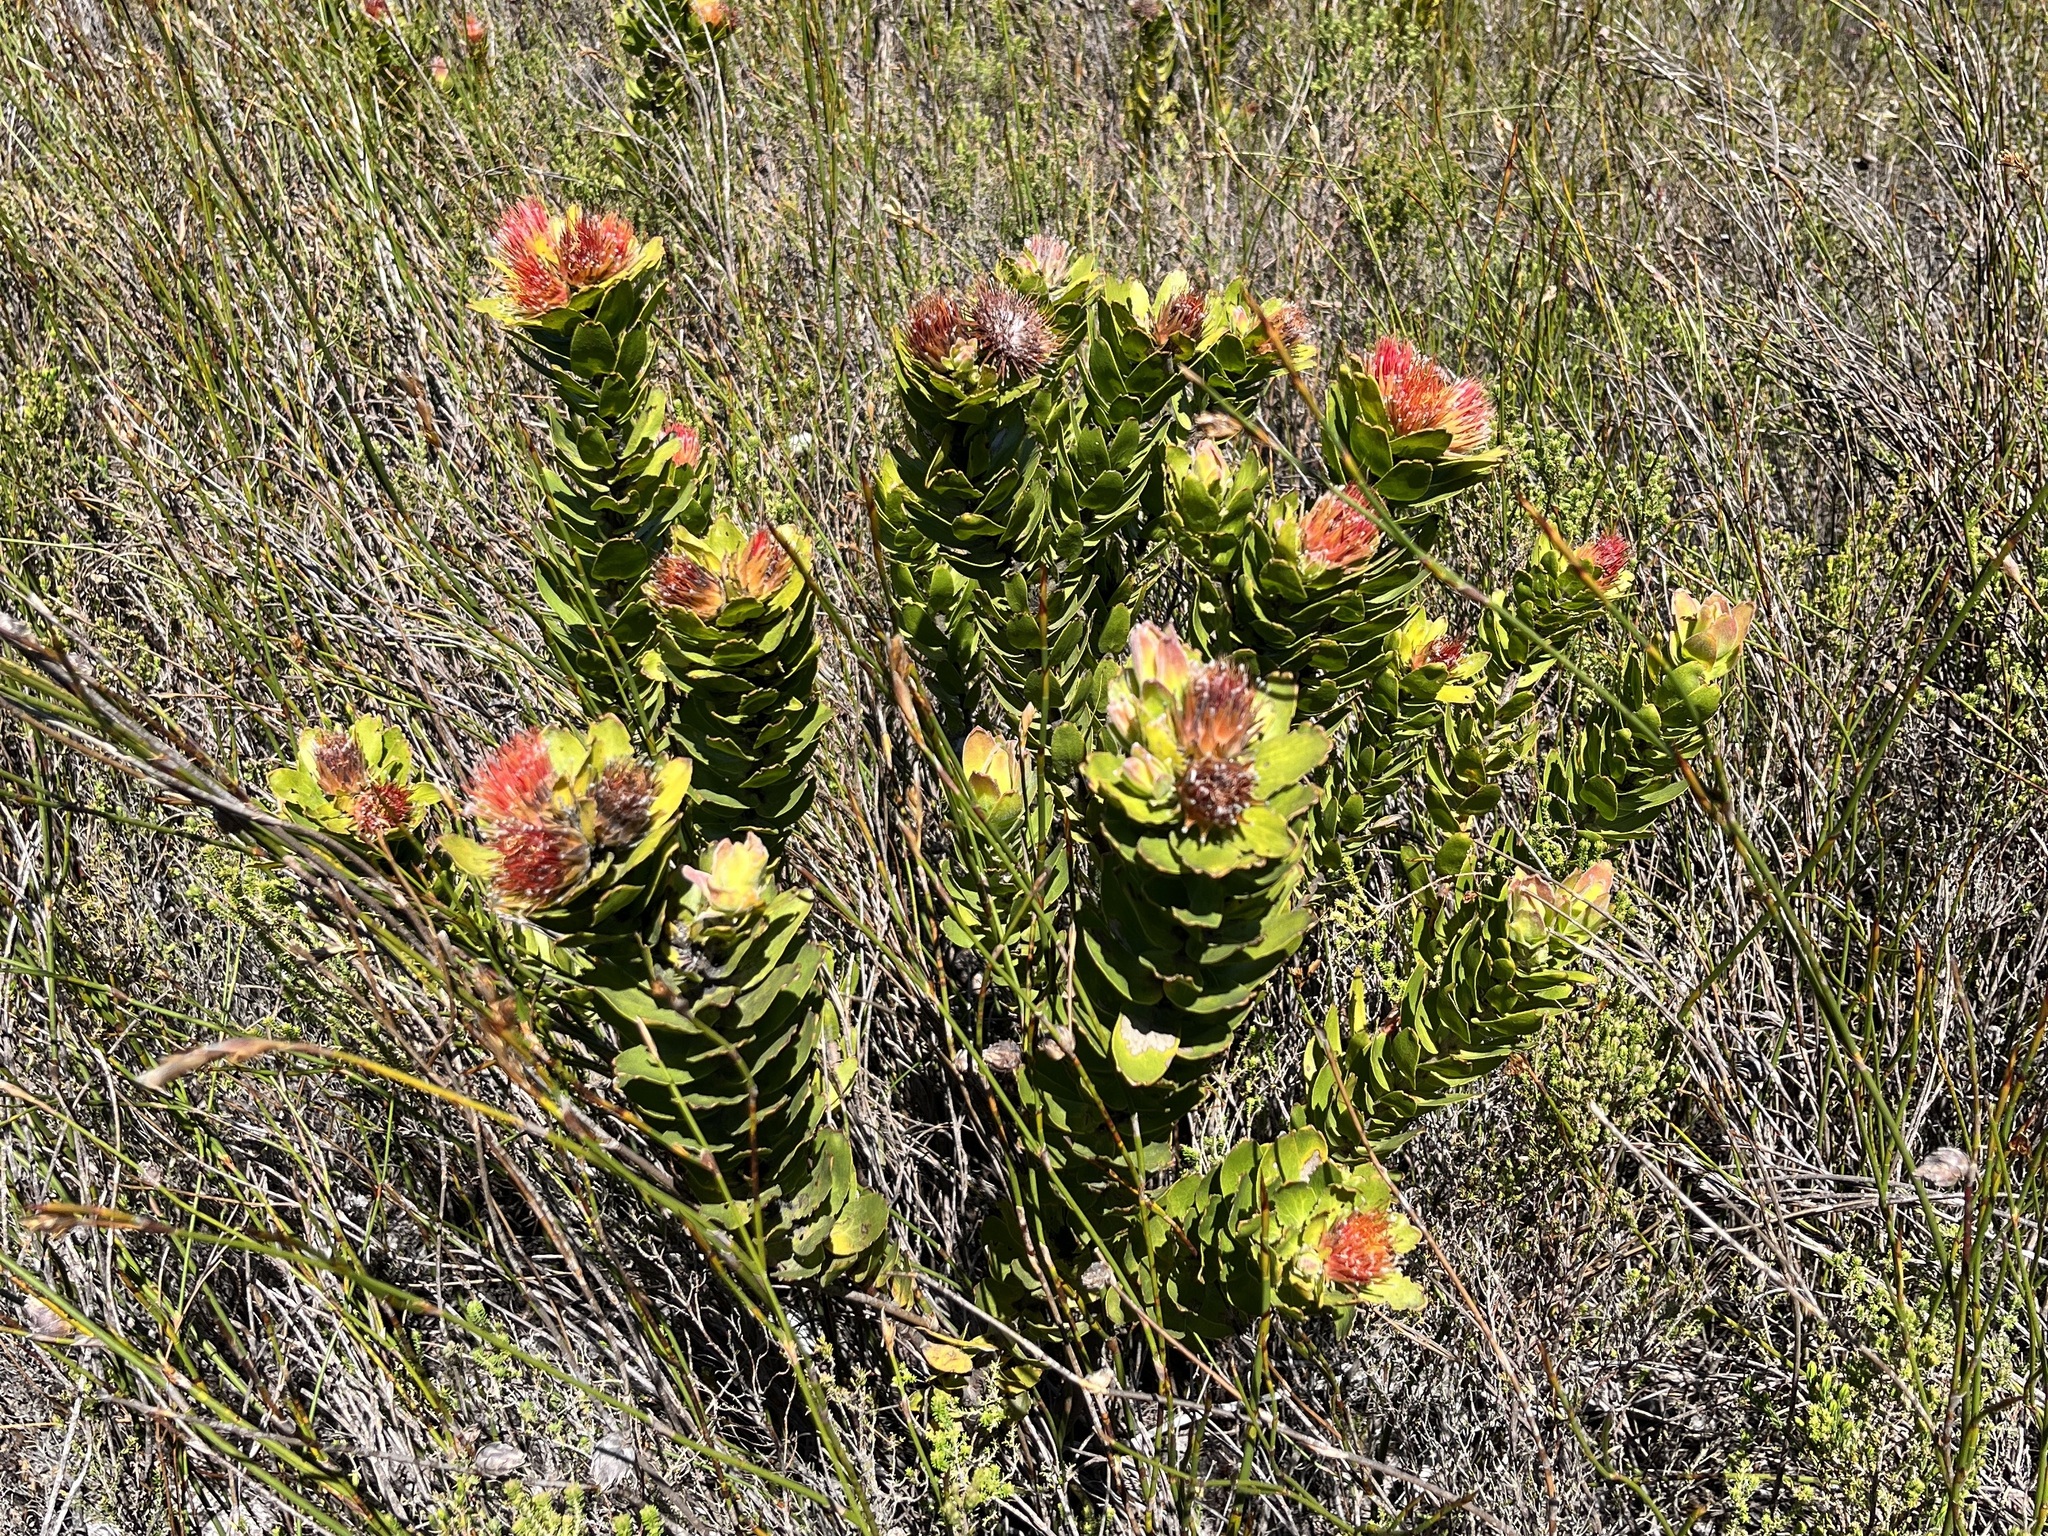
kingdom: Plantae
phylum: Tracheophyta
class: Magnoliopsida
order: Proteales
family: Proteaceae
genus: Leucospermum
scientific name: Leucospermum oleifolium
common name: Matches
